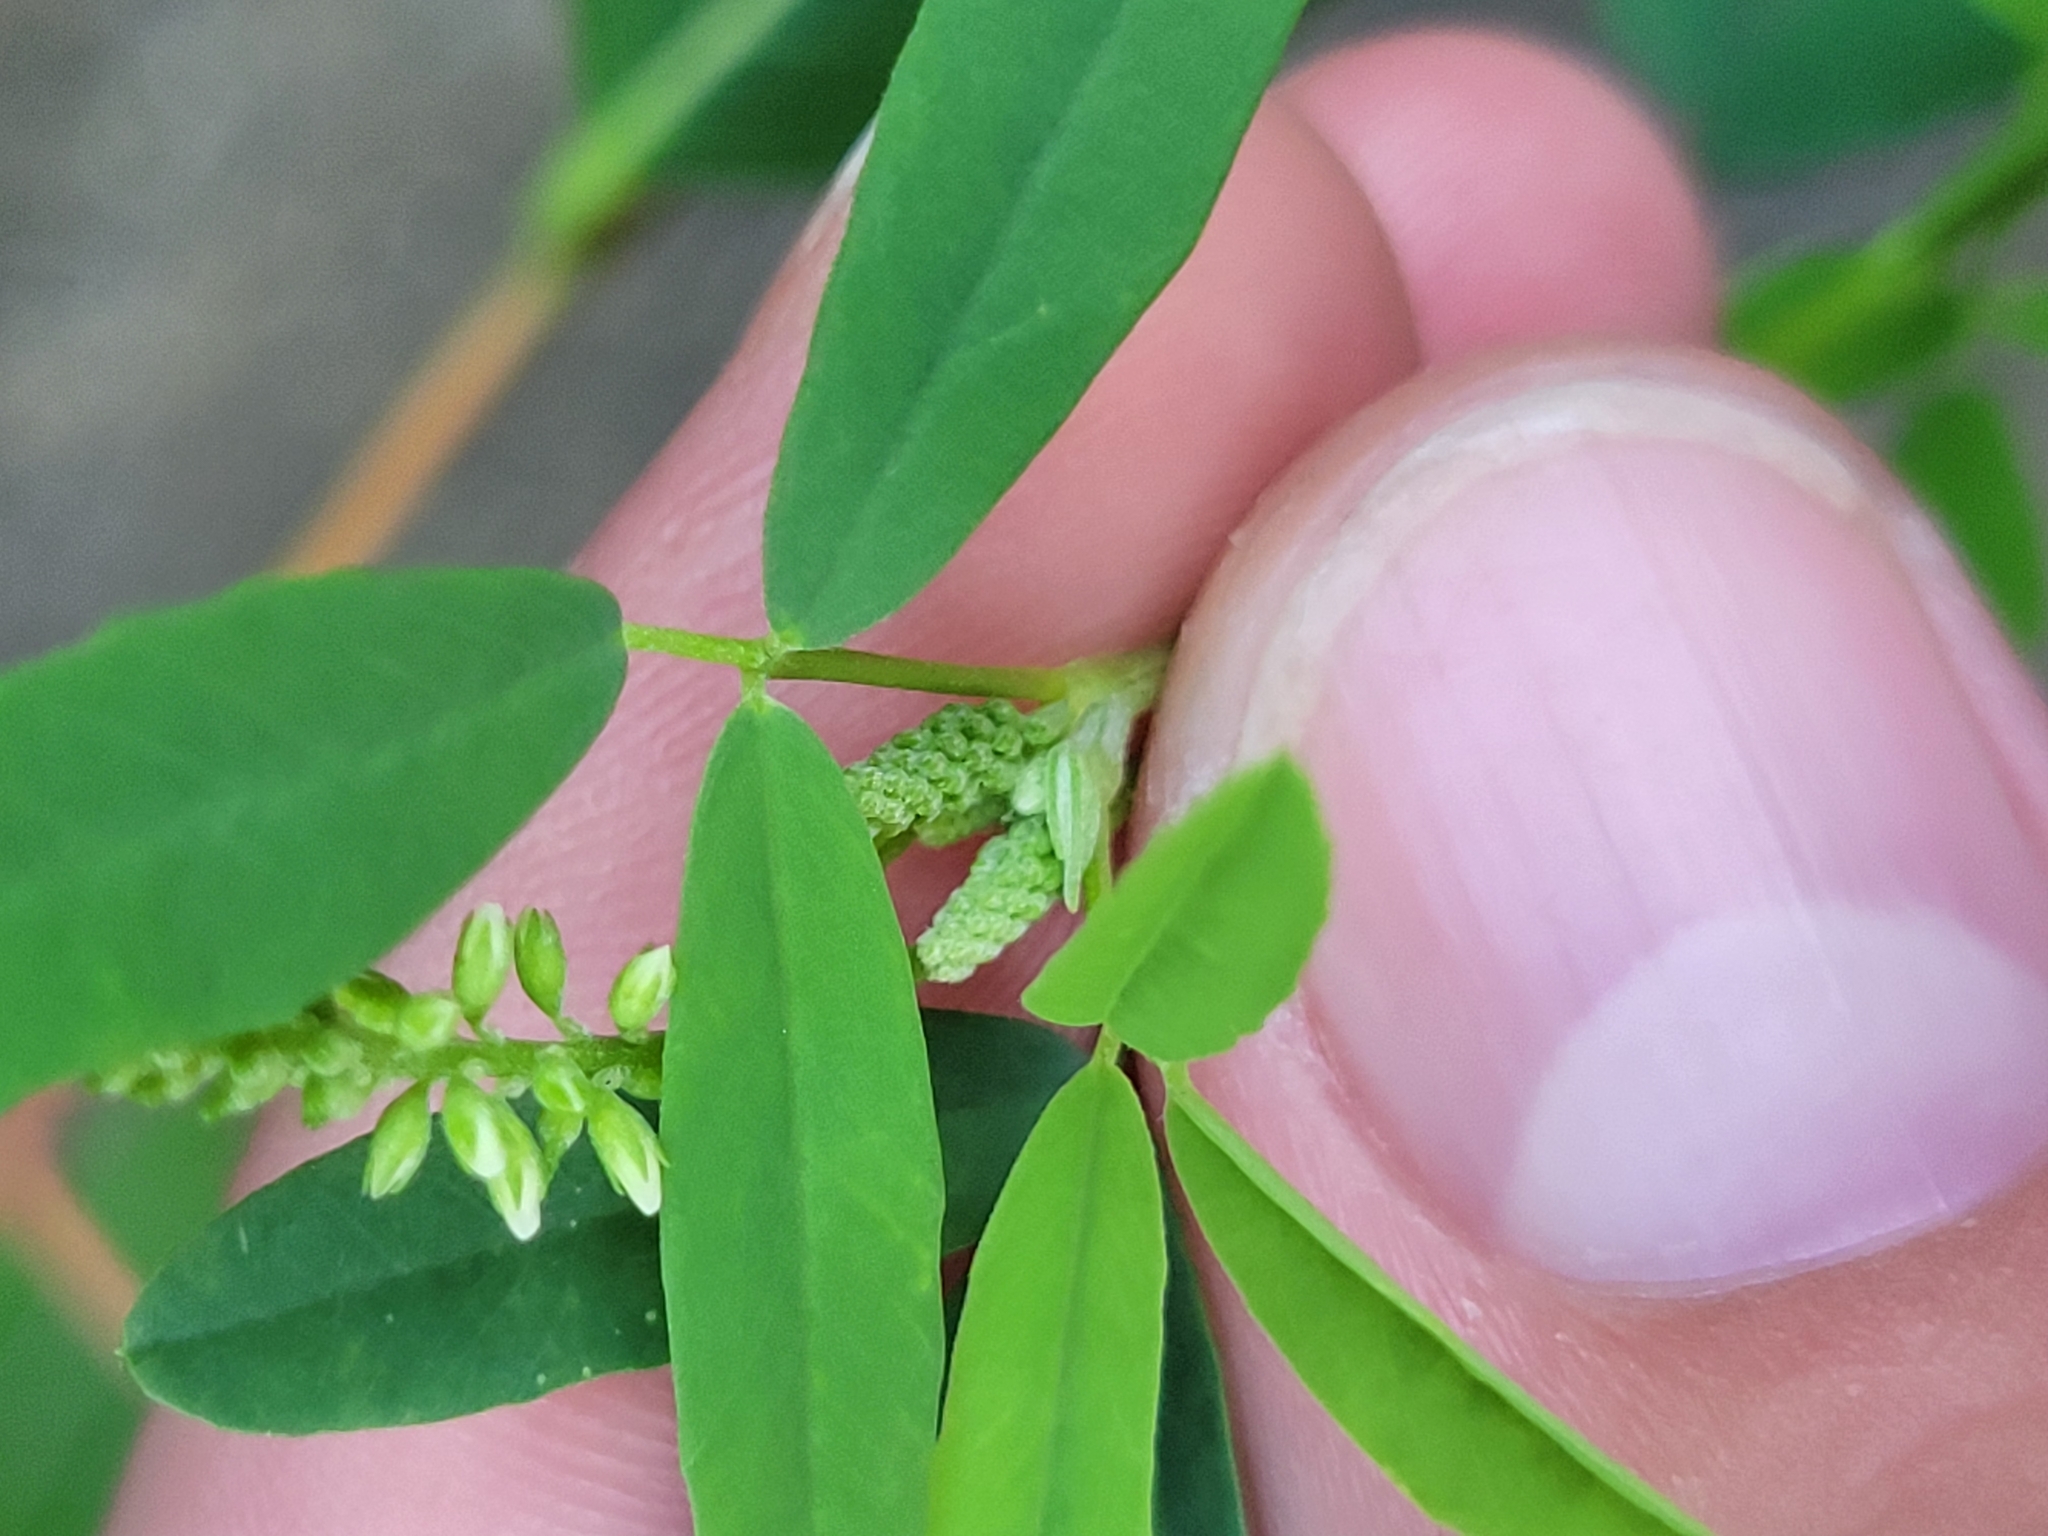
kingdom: Plantae
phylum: Tracheophyta
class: Magnoliopsida
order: Fabales
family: Fabaceae
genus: Melilotus
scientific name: Melilotus albus
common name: White melilot
